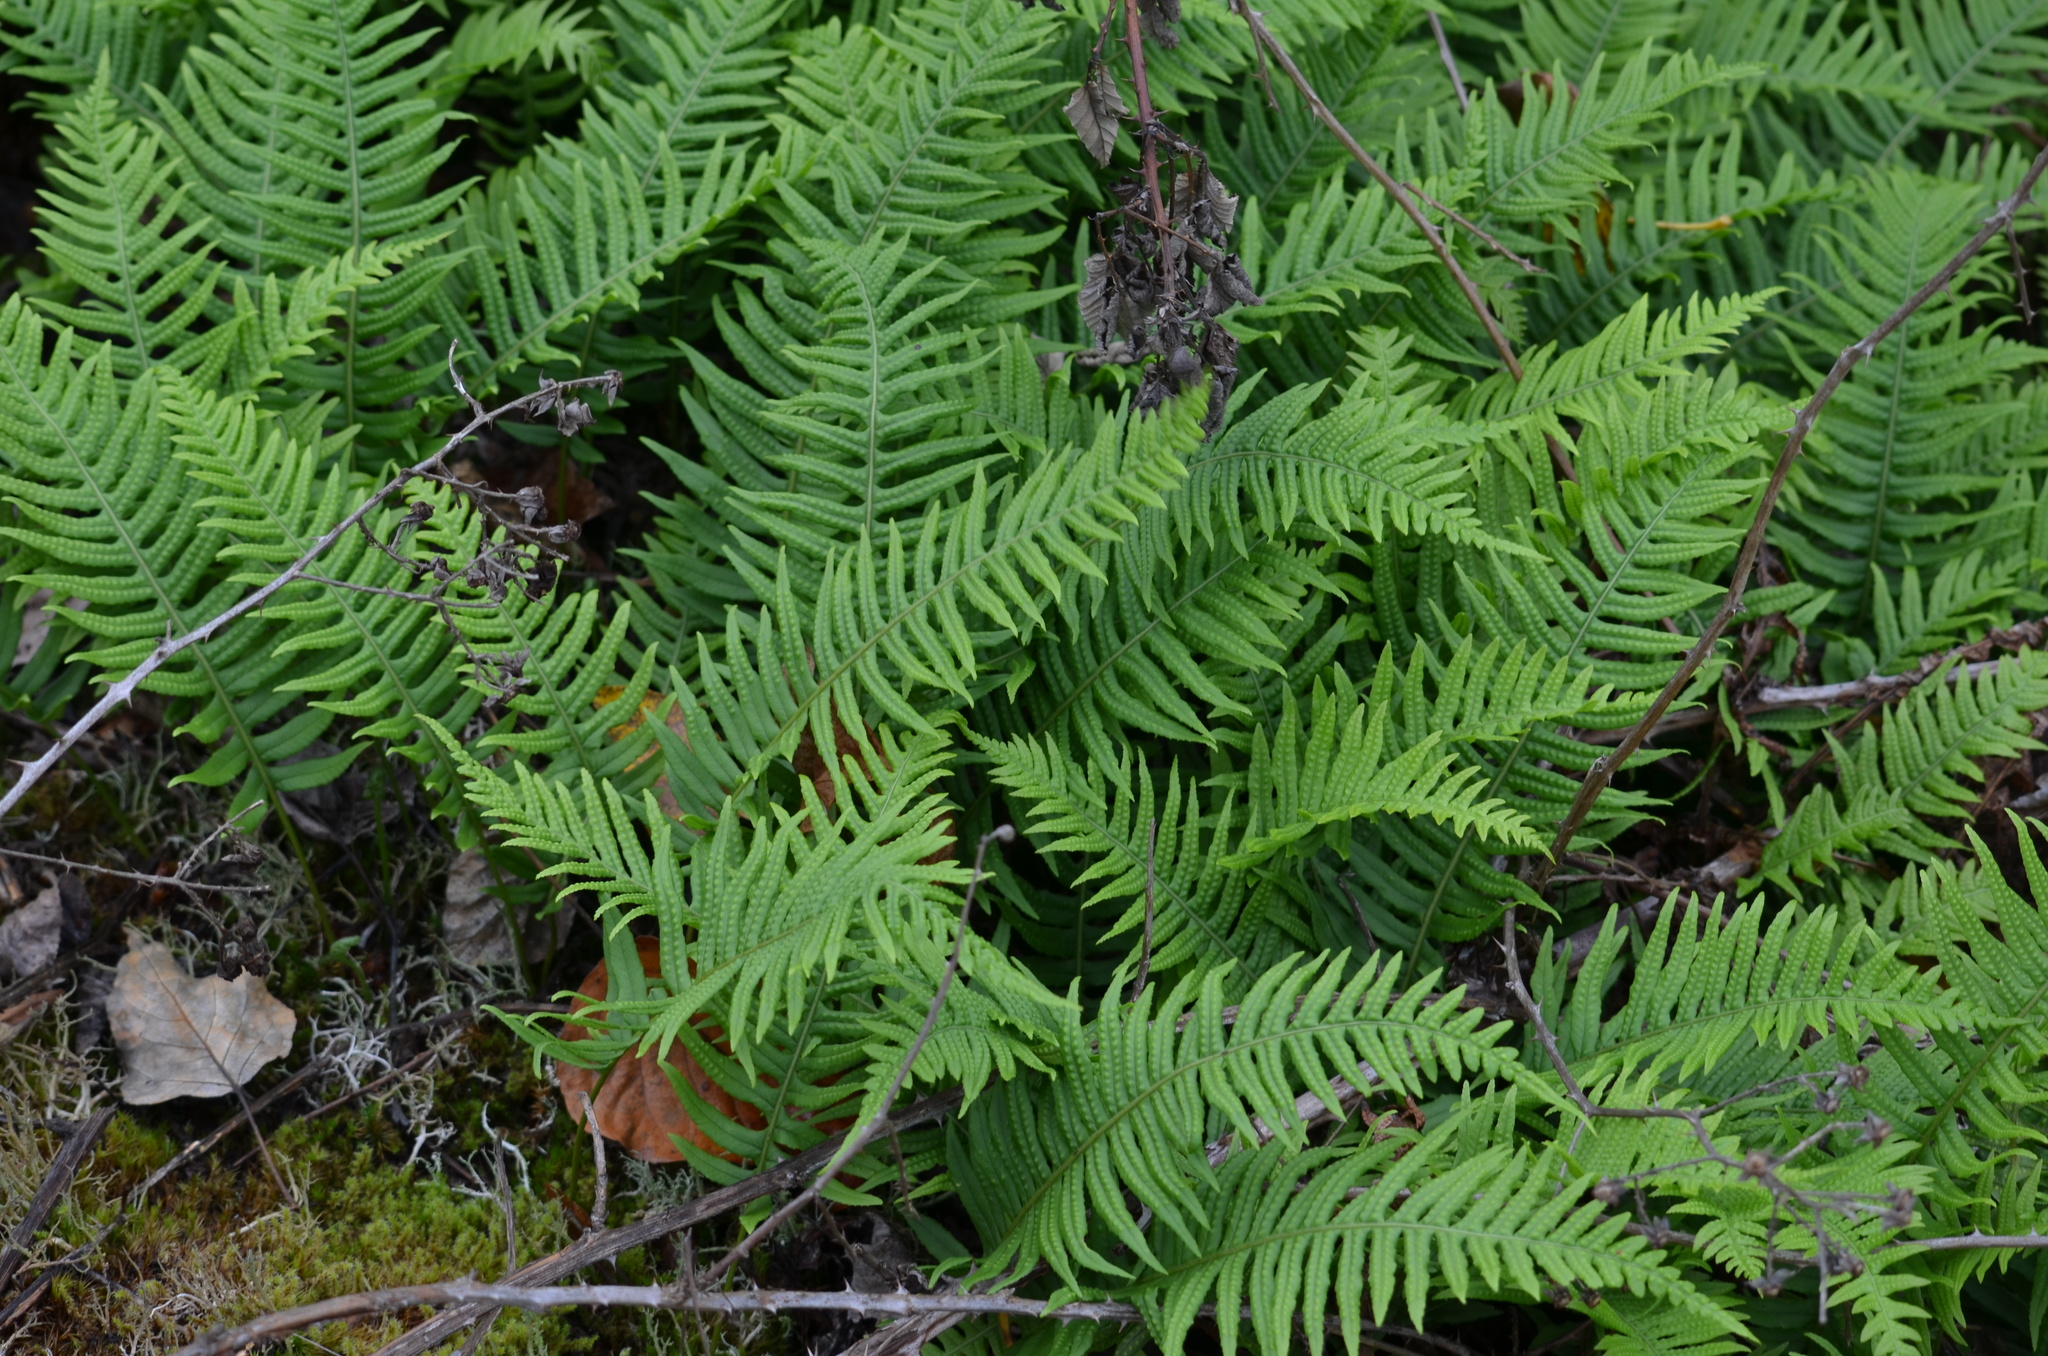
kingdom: Plantae
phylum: Tracheophyta
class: Polypodiopsida
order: Polypodiales
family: Polypodiaceae
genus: Polypodium
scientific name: Polypodium glycyrrhiza
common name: Licorice fern
